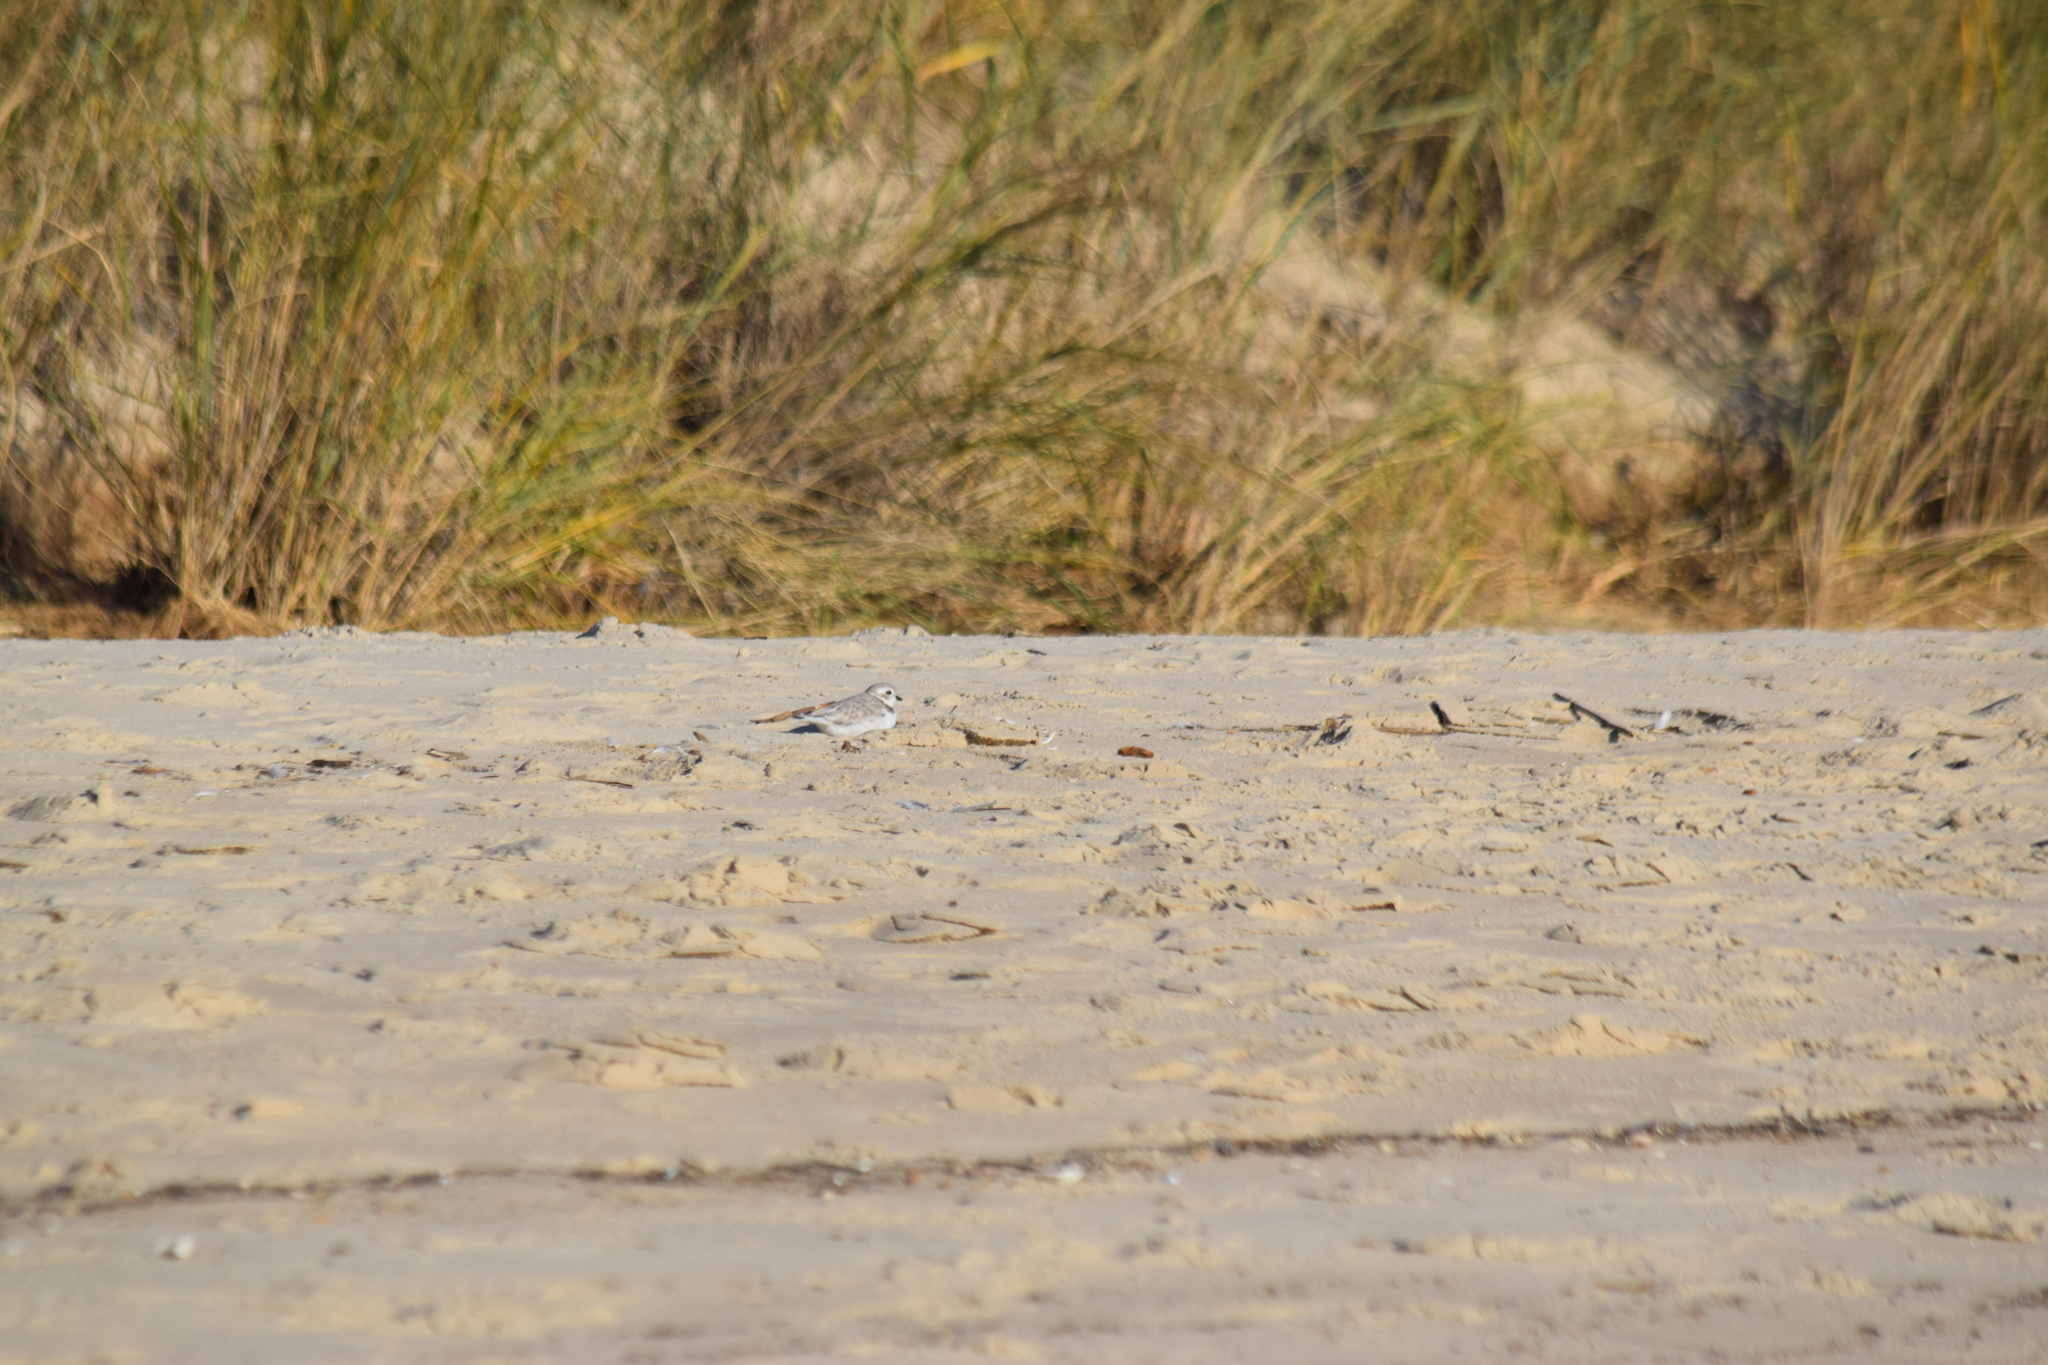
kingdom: Animalia
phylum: Chordata
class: Aves
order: Charadriiformes
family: Charadriidae
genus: Charadrius
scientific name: Charadrius melodus
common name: Piping plover
